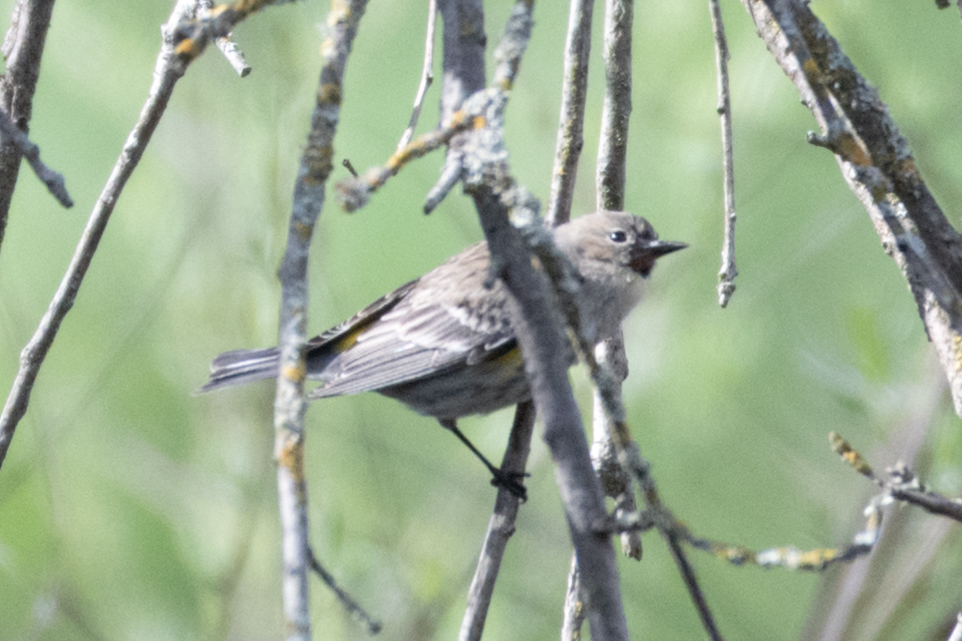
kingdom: Animalia
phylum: Chordata
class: Aves
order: Passeriformes
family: Parulidae
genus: Setophaga
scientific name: Setophaga coronata
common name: Myrtle warbler
